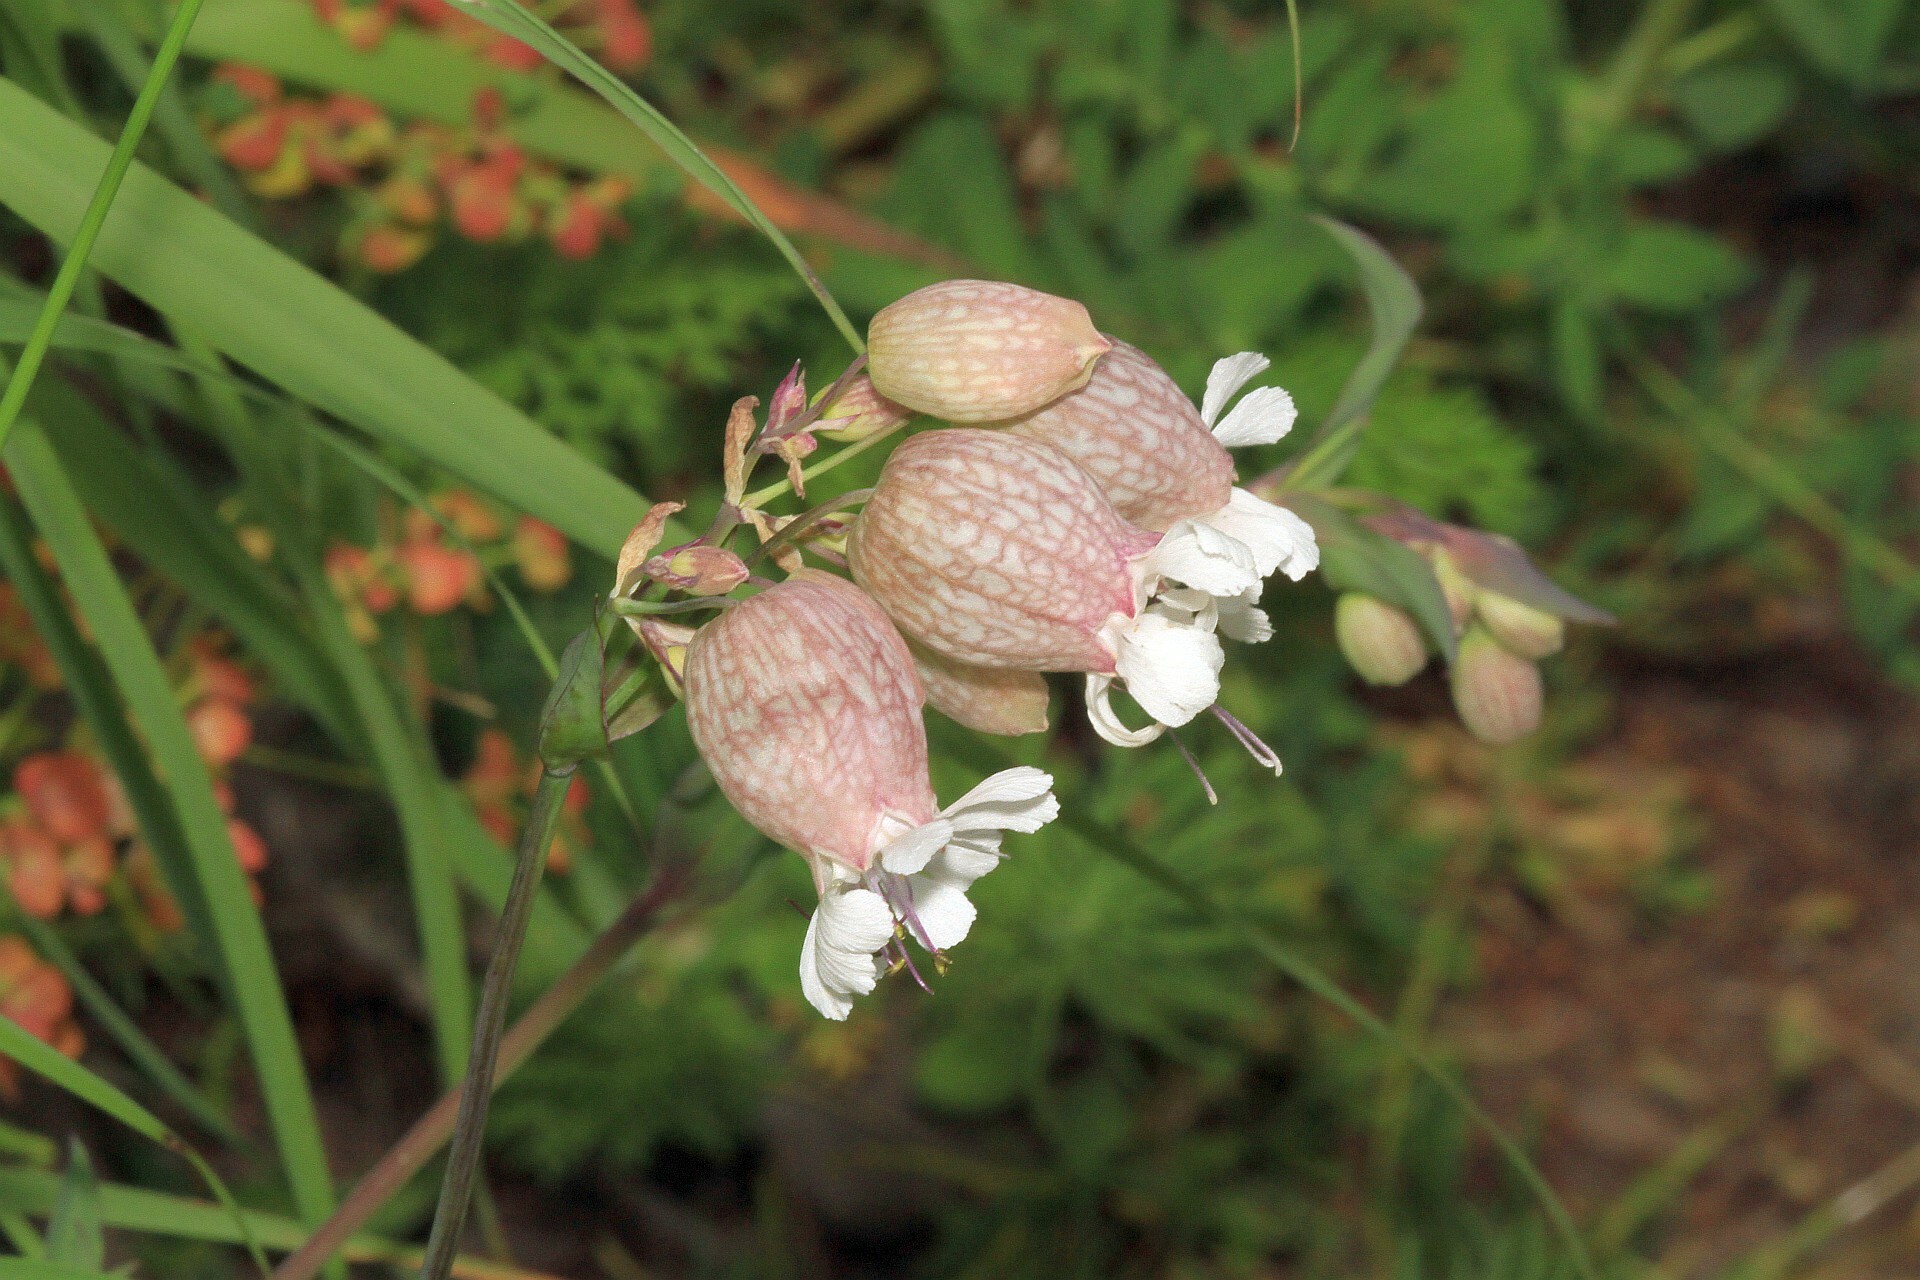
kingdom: Plantae
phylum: Tracheophyta
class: Magnoliopsida
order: Caryophyllales
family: Caryophyllaceae
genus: Silene
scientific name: Silene vulgaris
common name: Bladder campion
